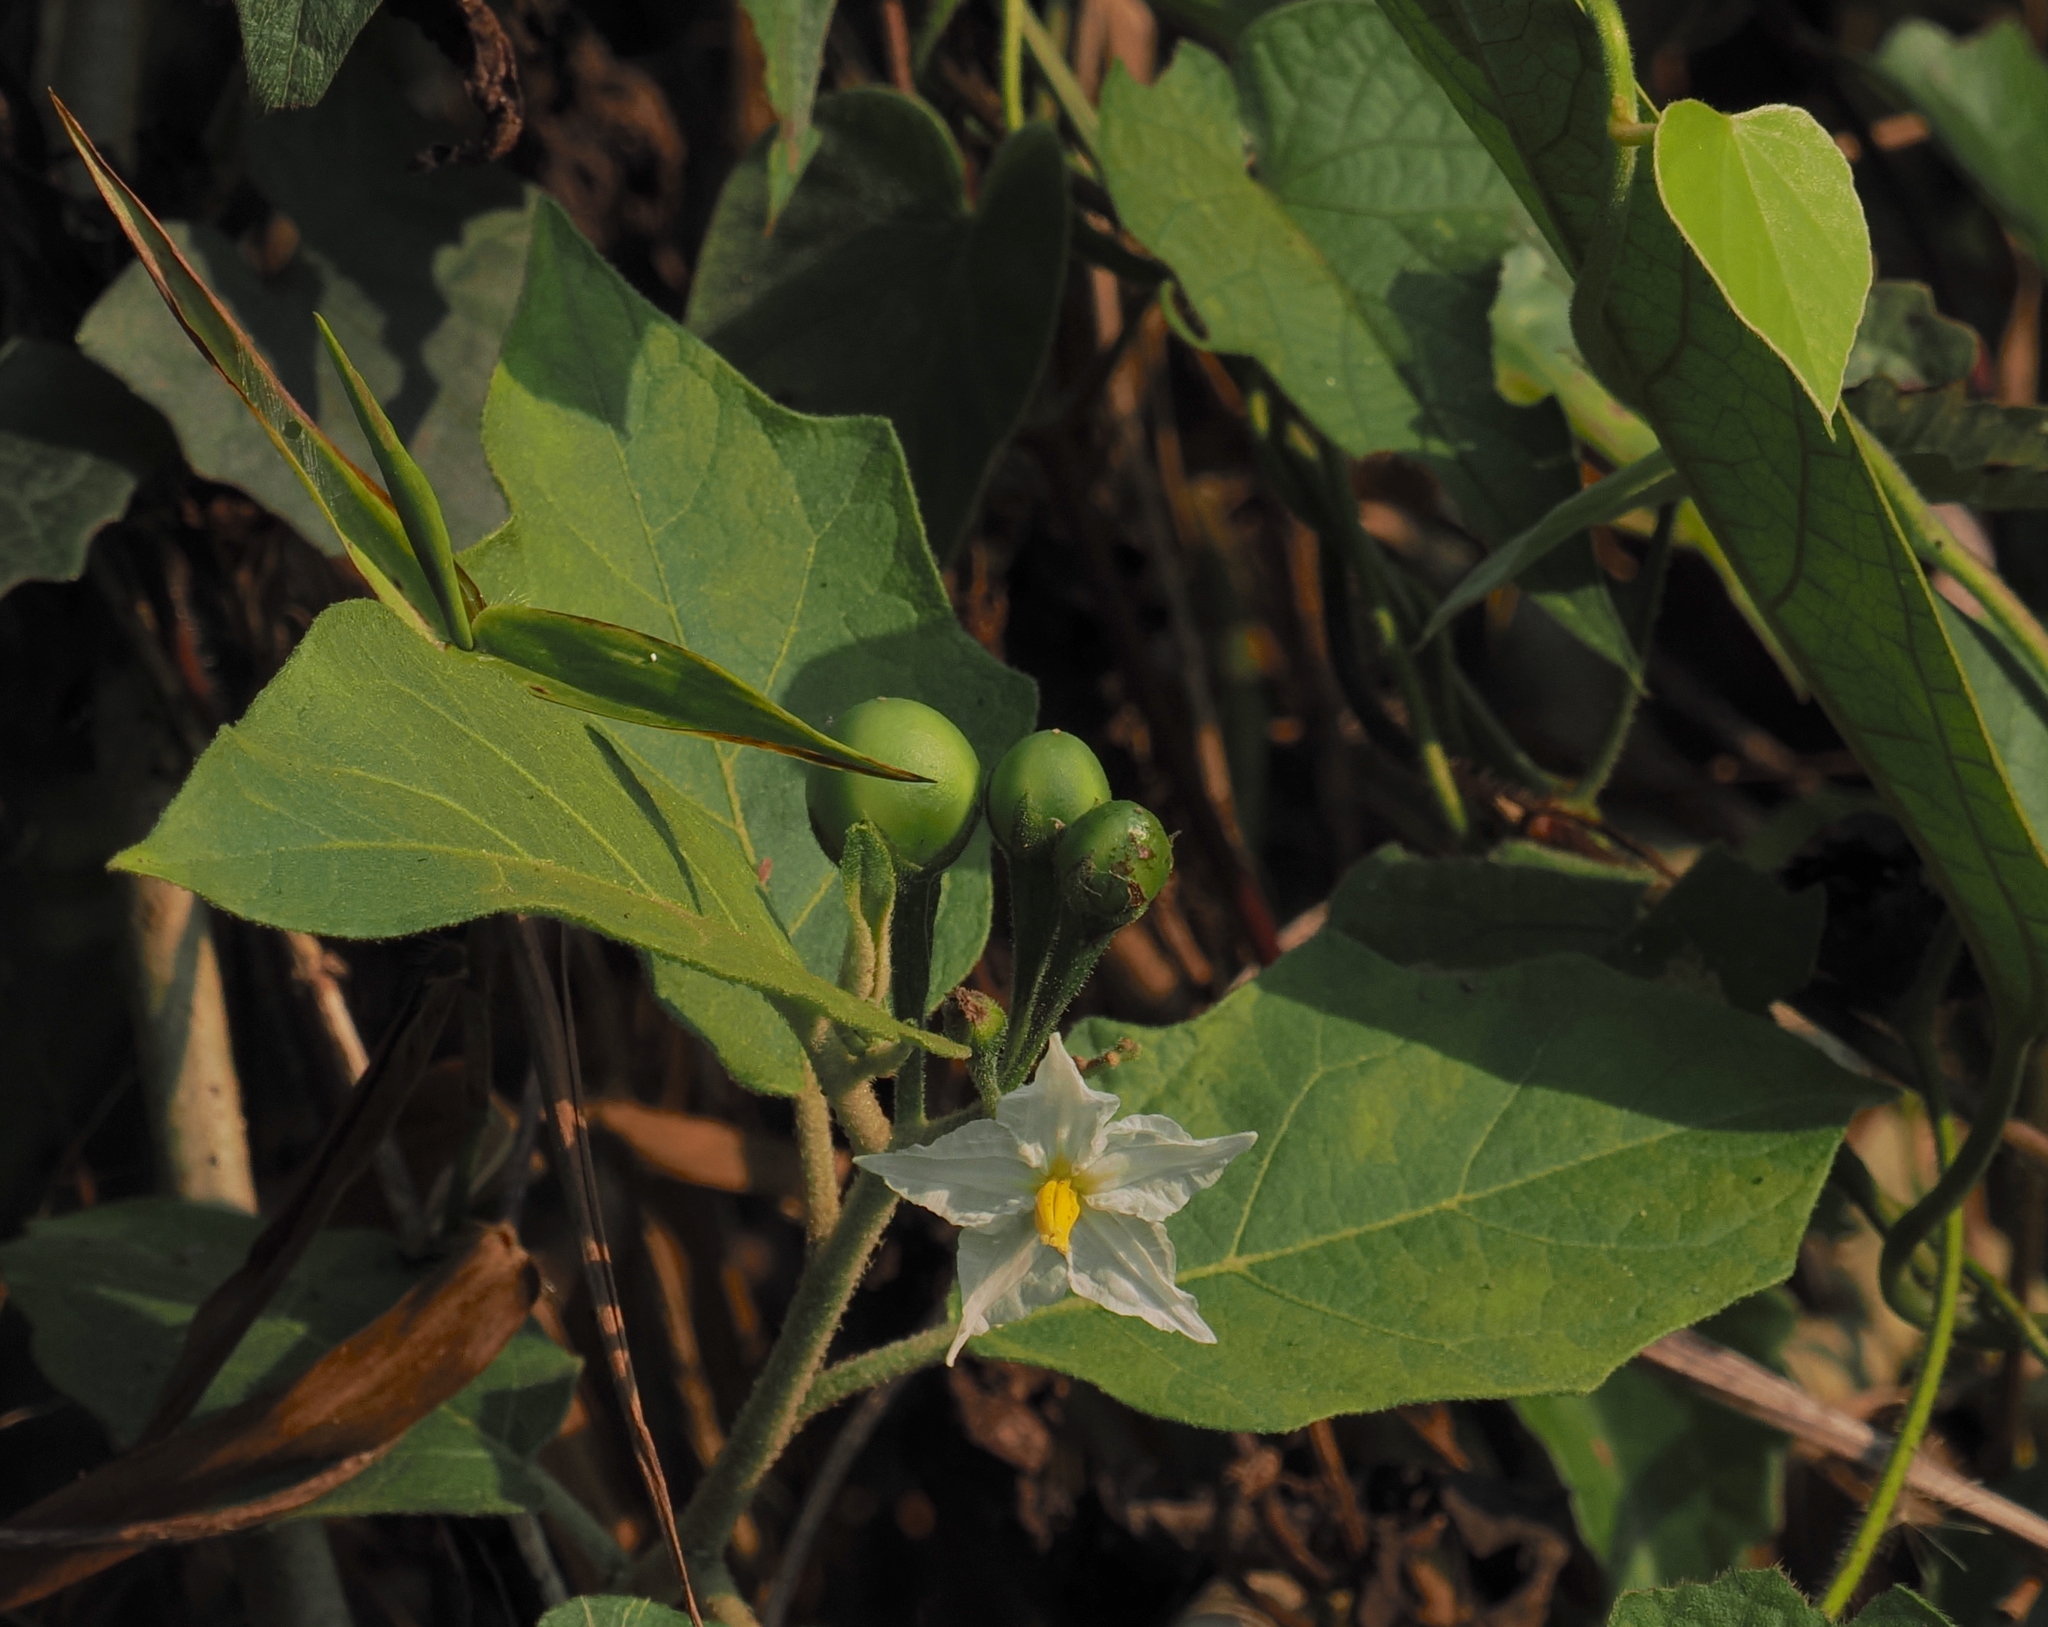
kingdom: Plantae
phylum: Tracheophyta
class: Magnoliopsida
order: Solanales
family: Solanaceae
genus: Solanum
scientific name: Solanum torvum
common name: Turkey berry
